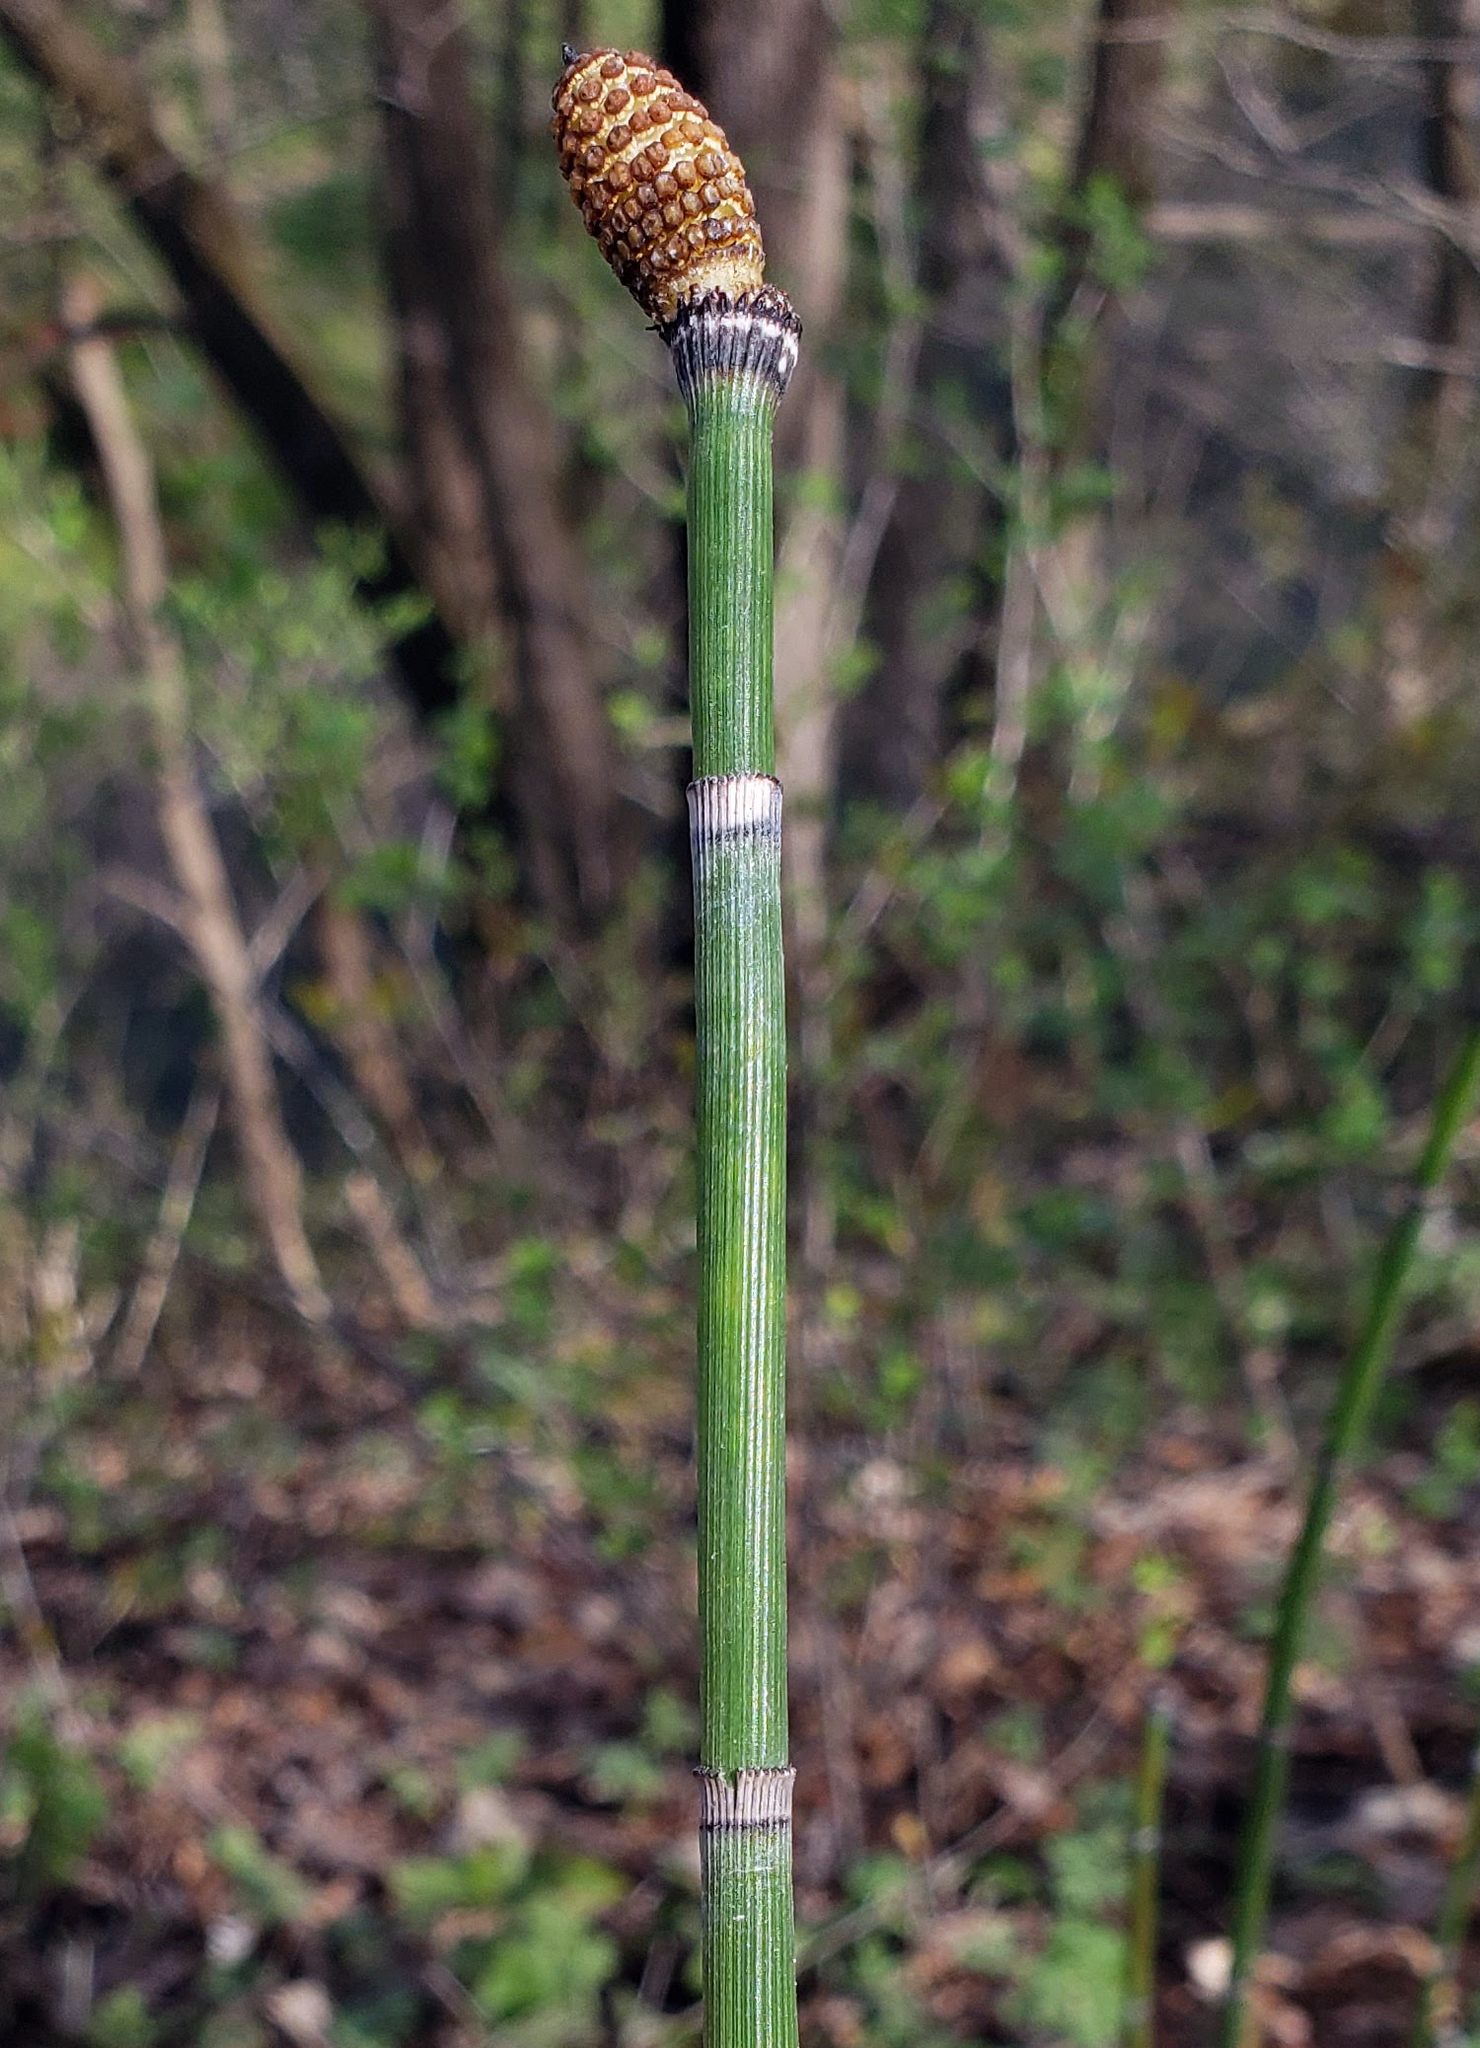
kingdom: Plantae
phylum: Tracheophyta
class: Polypodiopsida
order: Equisetales
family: Equisetaceae
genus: Equisetum
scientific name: Equisetum praealtum
